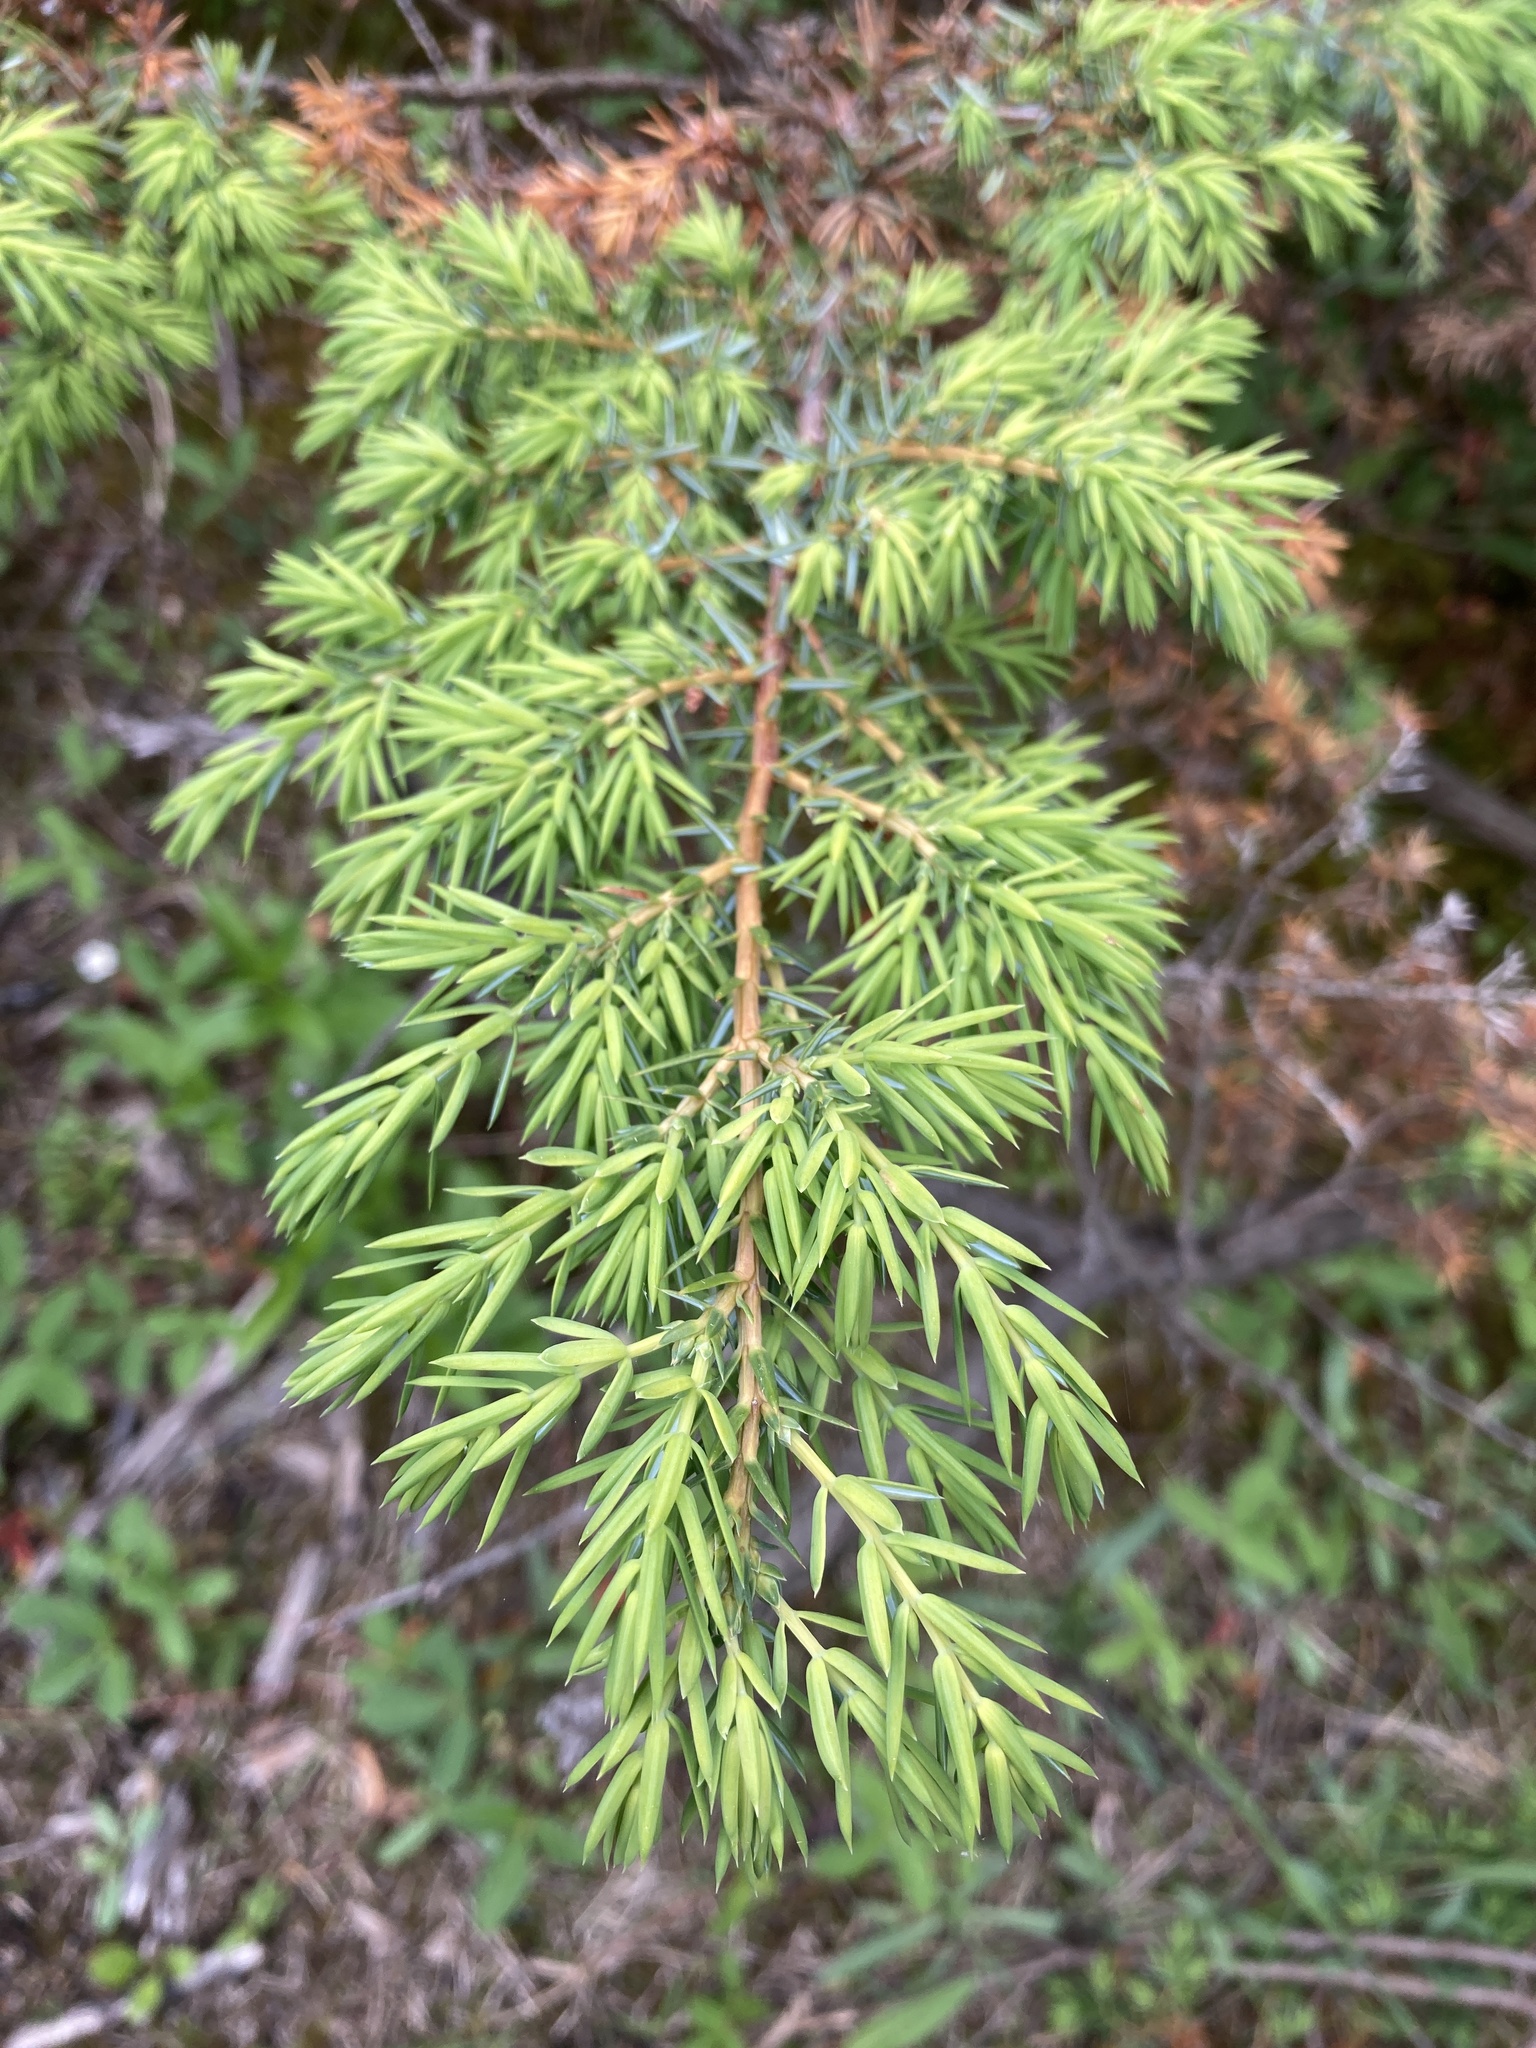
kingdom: Plantae
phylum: Tracheophyta
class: Pinopsida
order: Pinales
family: Cupressaceae
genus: Juniperus
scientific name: Juniperus communis
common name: Common juniper
